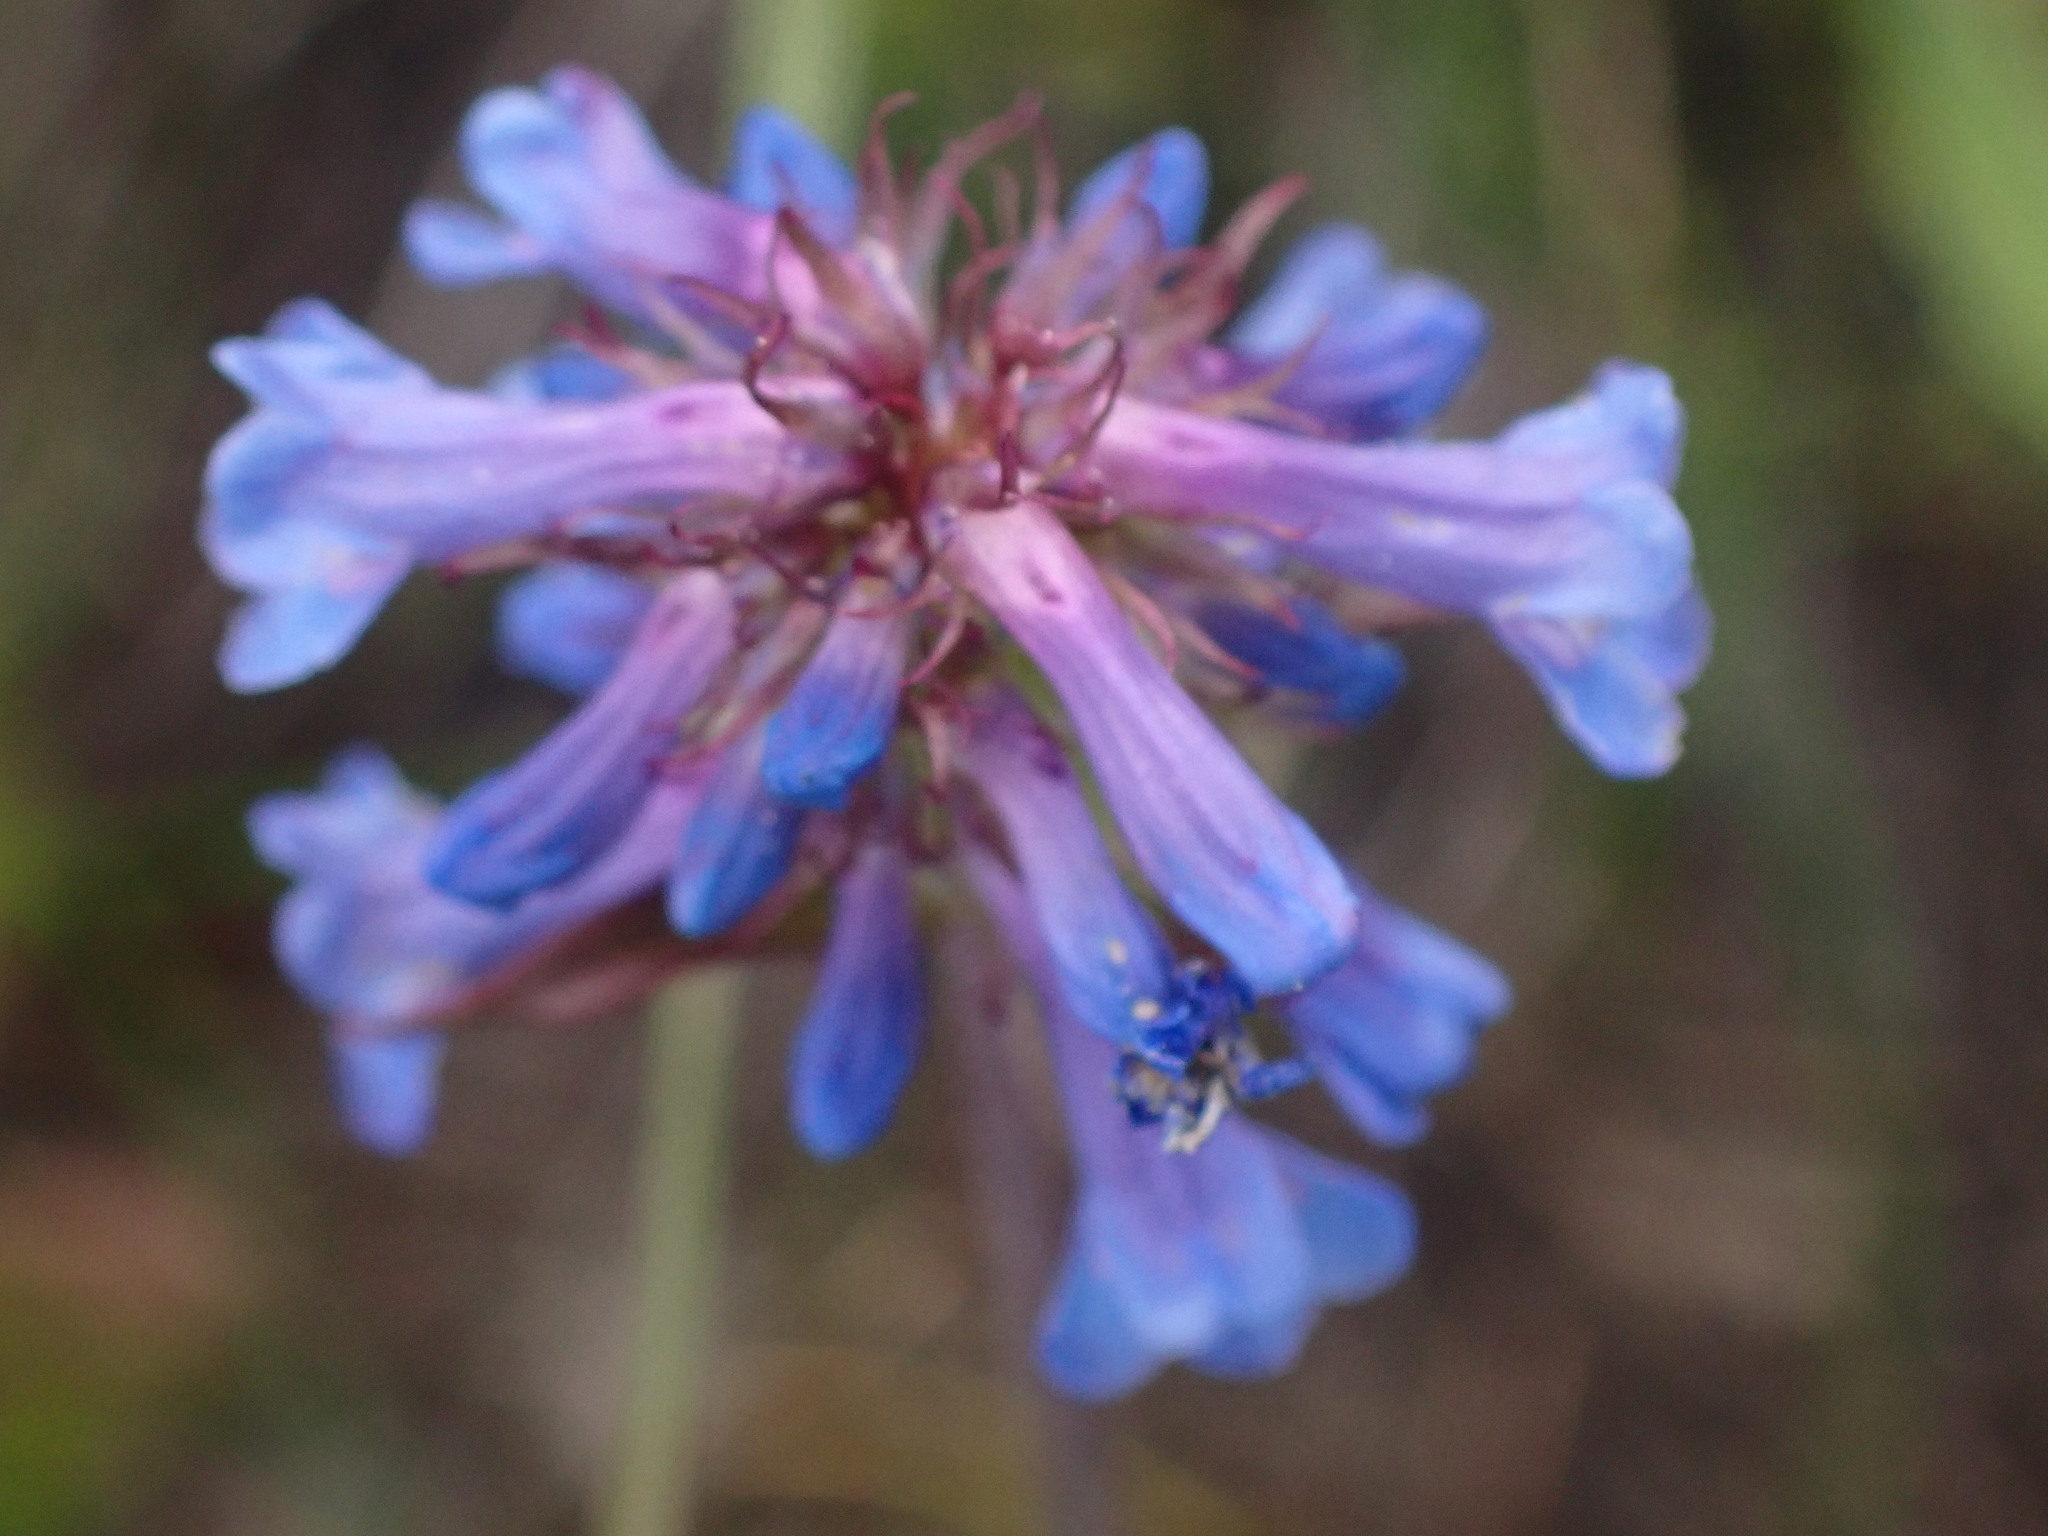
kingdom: Plantae
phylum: Tracheophyta
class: Magnoliopsida
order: Lamiales
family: Plantaginaceae
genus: Penstemon
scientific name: Penstemon procerus
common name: Small-flower penstemon
